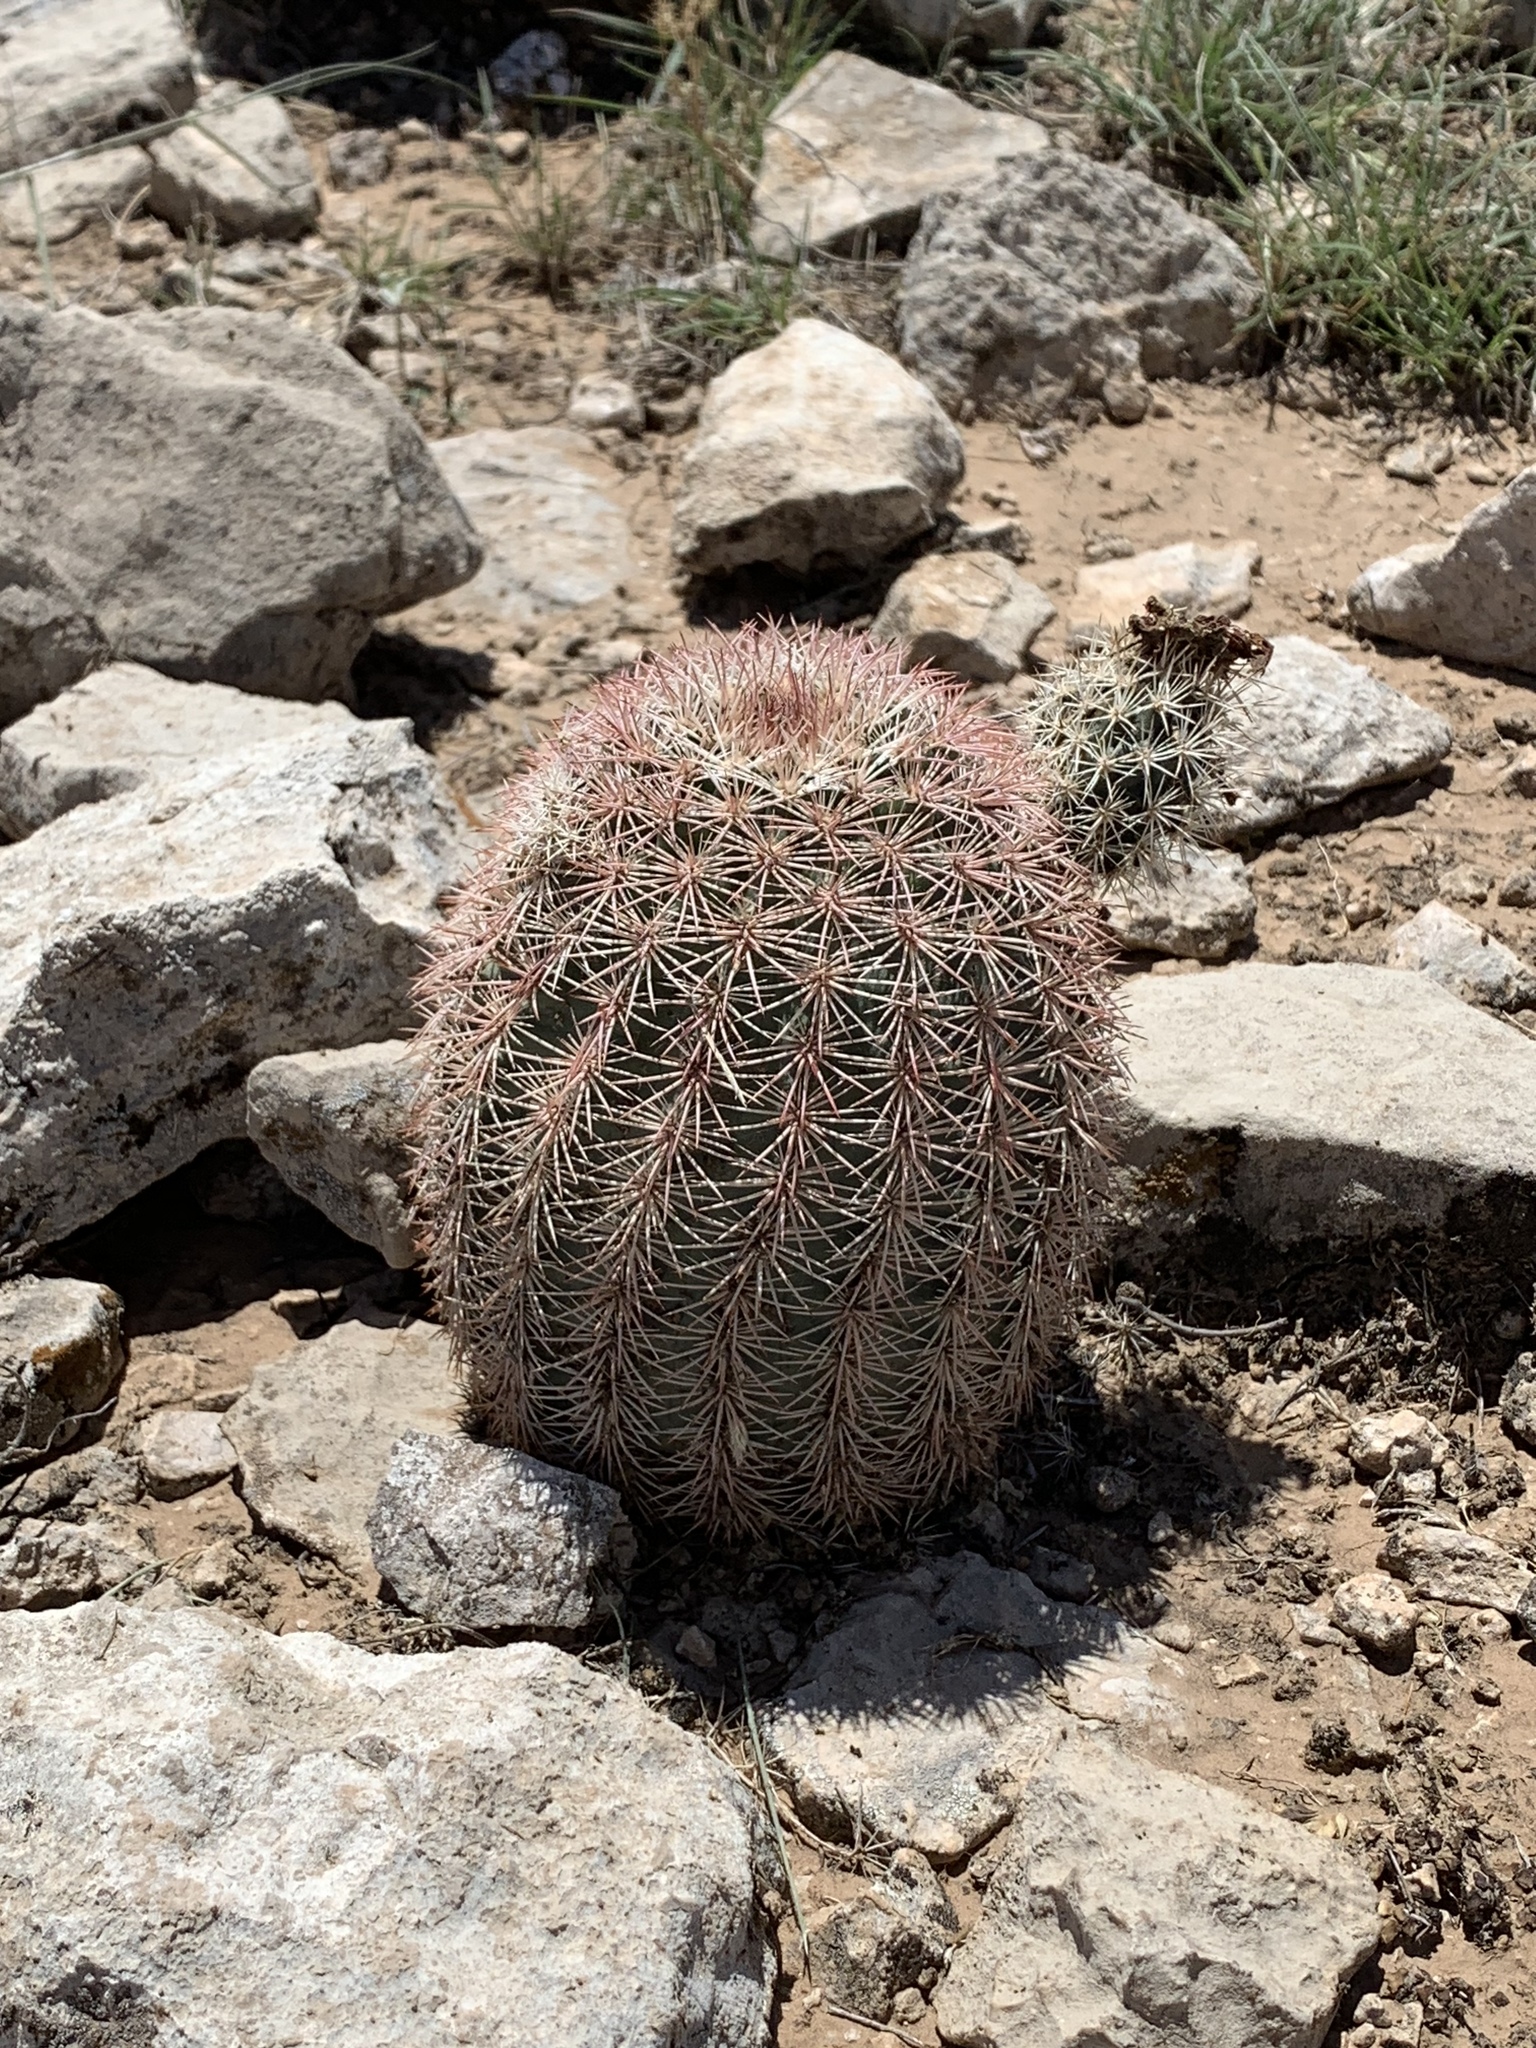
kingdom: Plantae
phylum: Tracheophyta
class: Magnoliopsida
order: Caryophyllales
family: Cactaceae
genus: Echinocereus
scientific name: Echinocereus dasyacanthus
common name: Spiny hedgehog cactus
